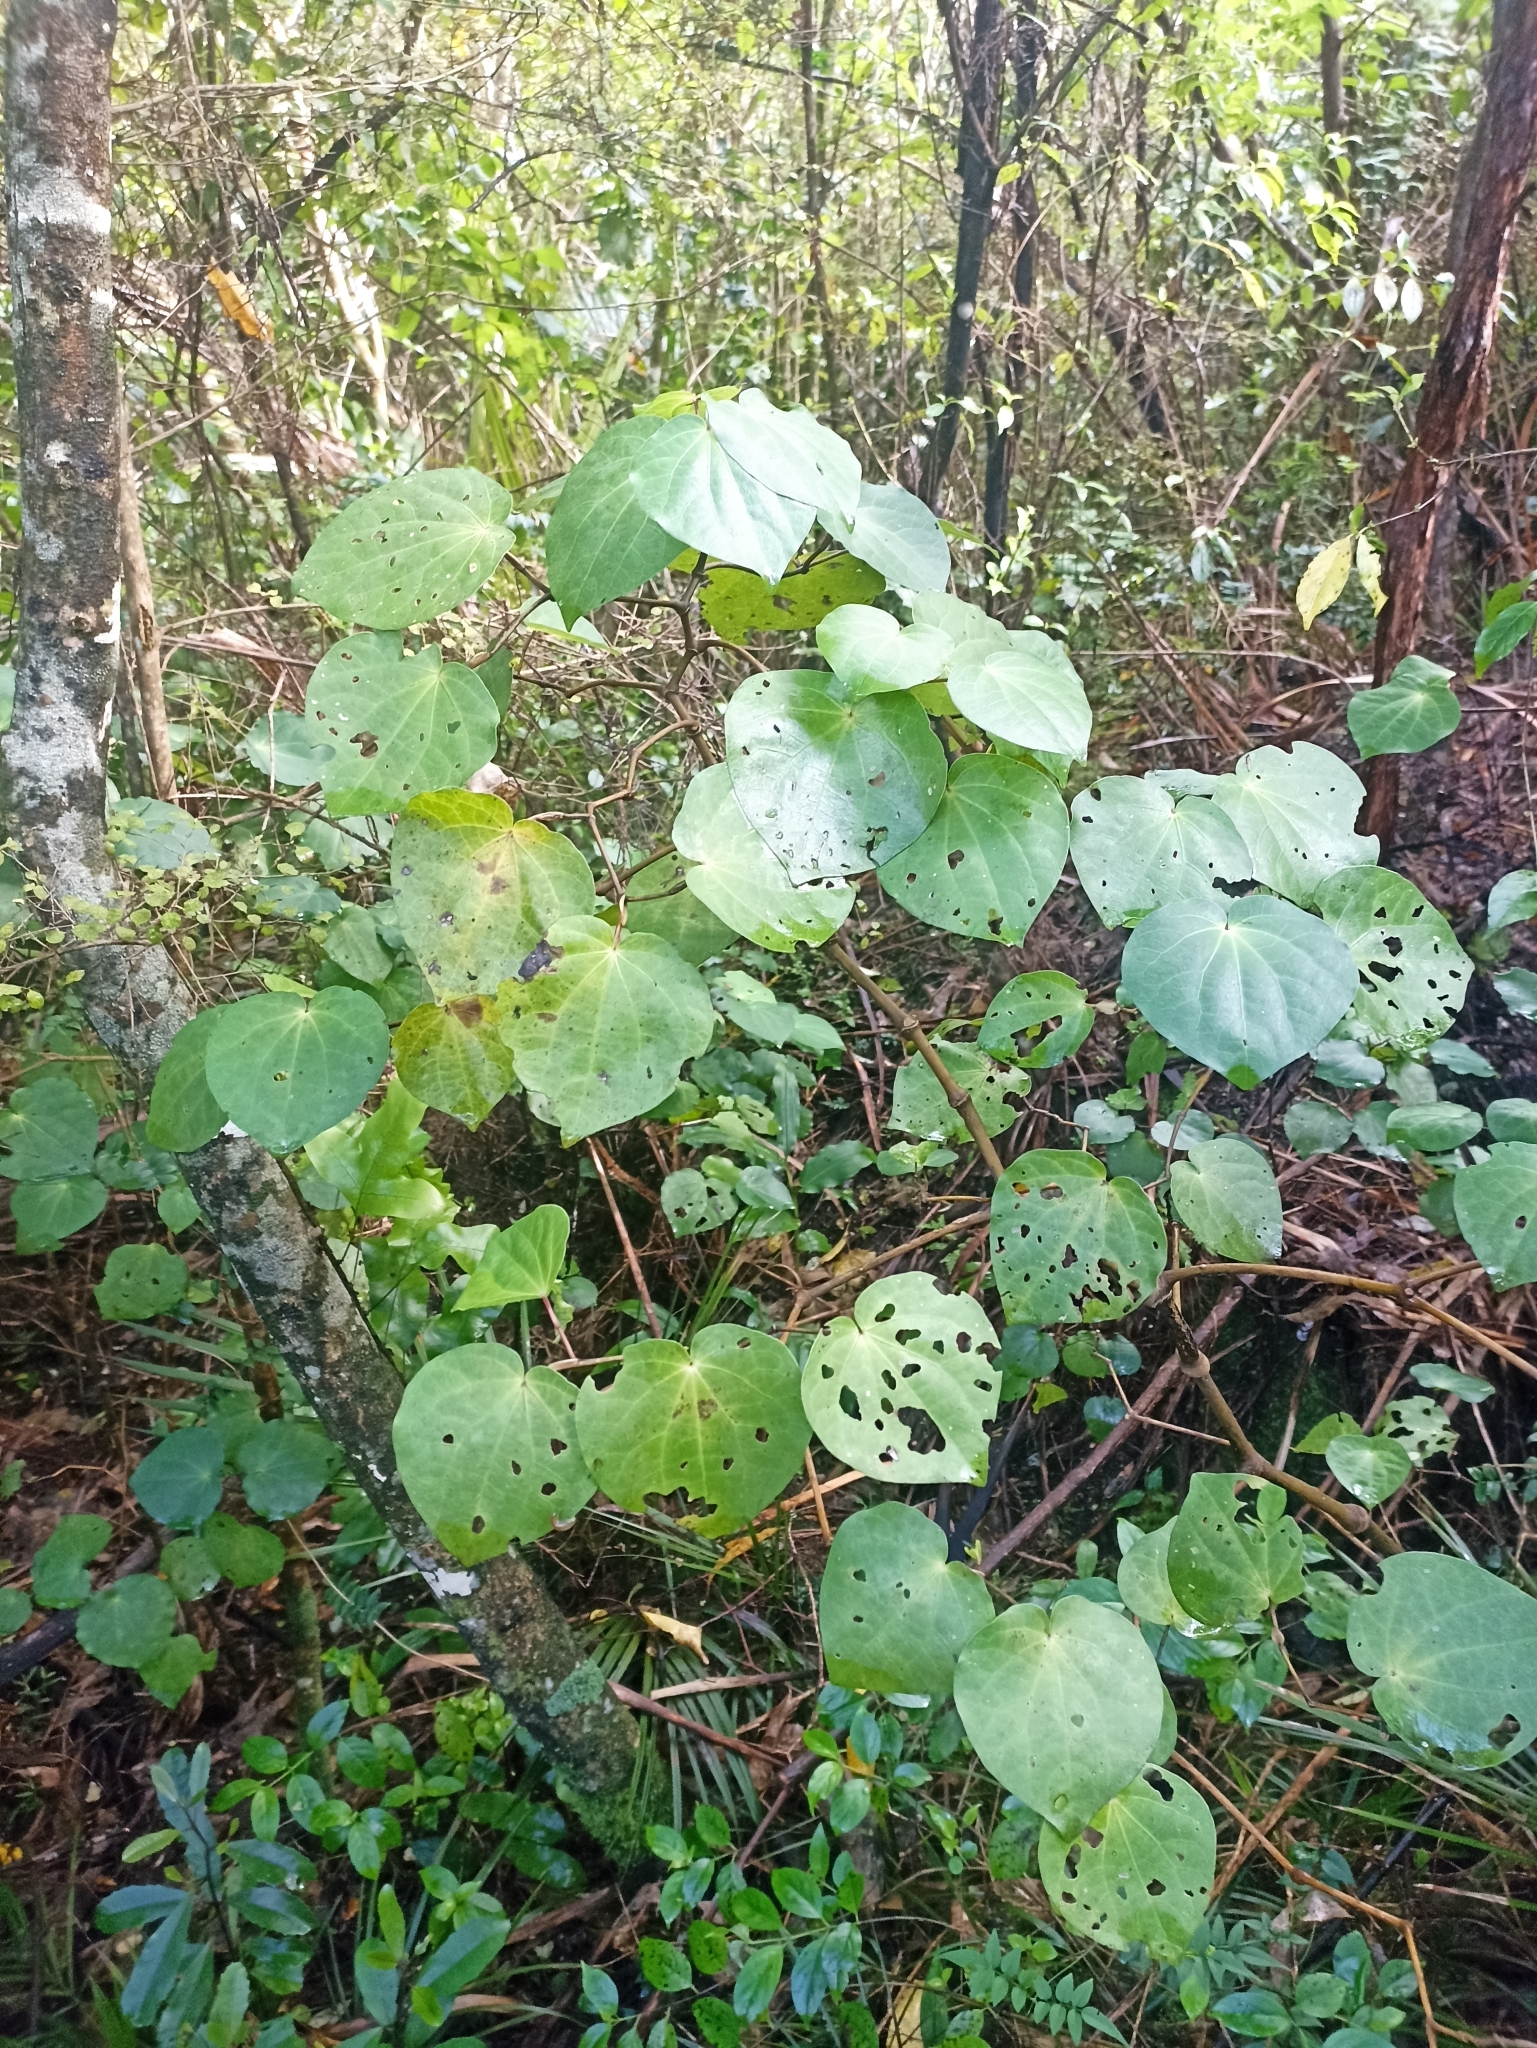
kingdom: Plantae
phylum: Tracheophyta
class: Magnoliopsida
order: Piperales
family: Piperaceae
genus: Macropiper
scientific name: Macropiper excelsum
